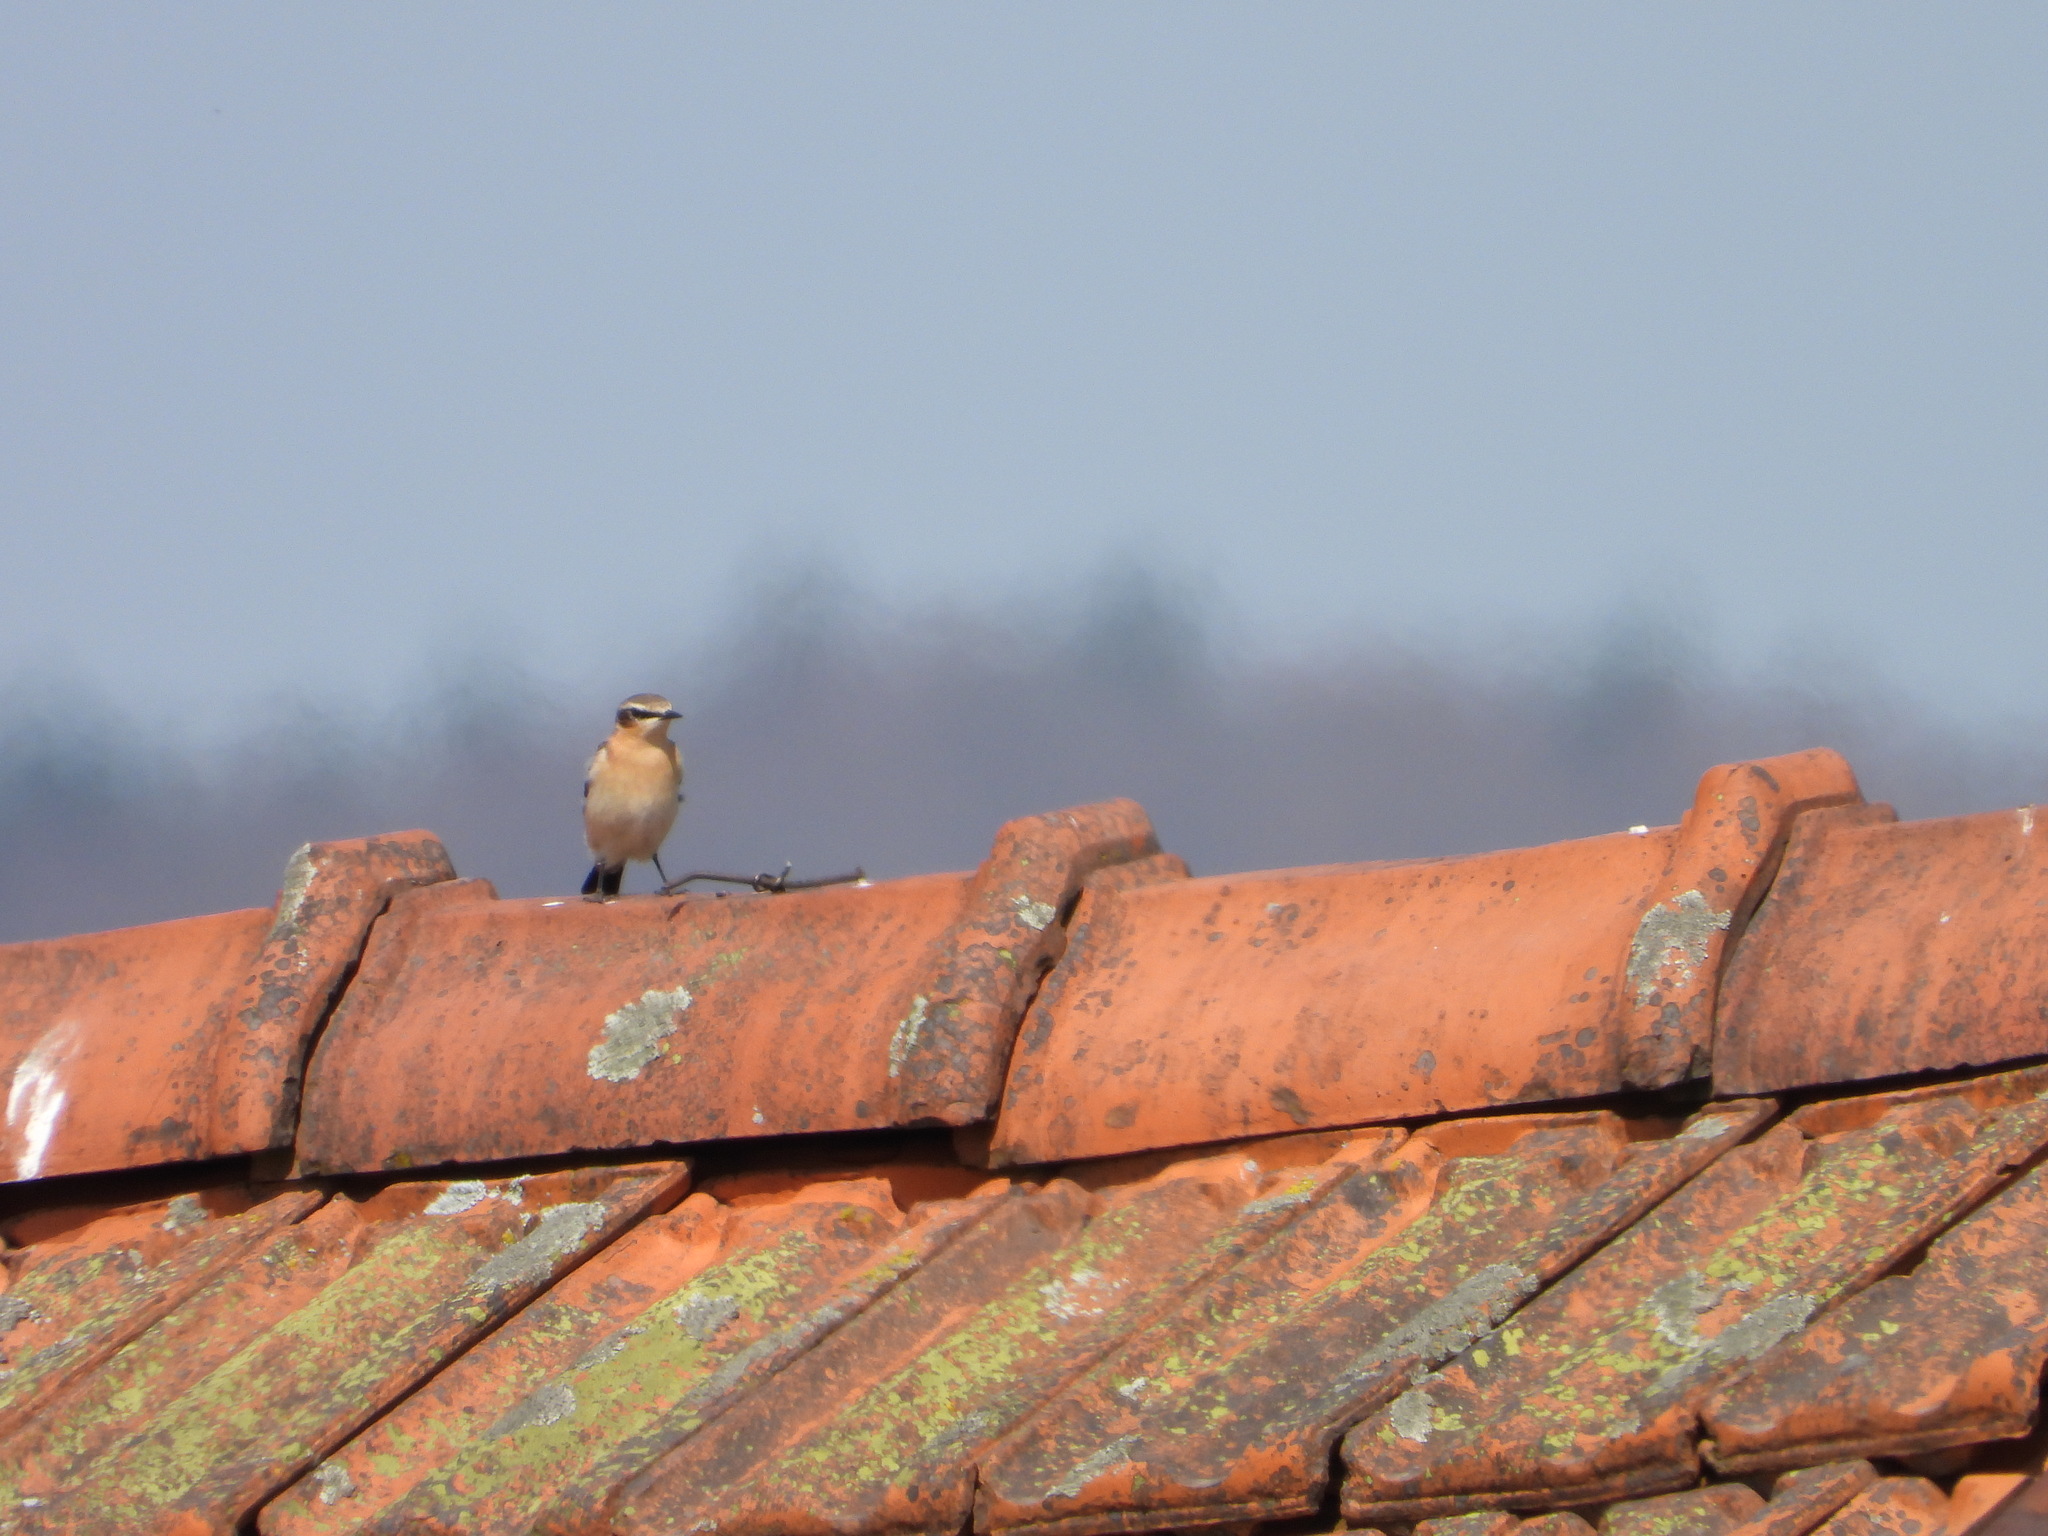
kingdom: Animalia
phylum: Chordata
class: Aves
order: Passeriformes
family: Muscicapidae
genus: Oenanthe
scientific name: Oenanthe oenanthe
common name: Northern wheatear
